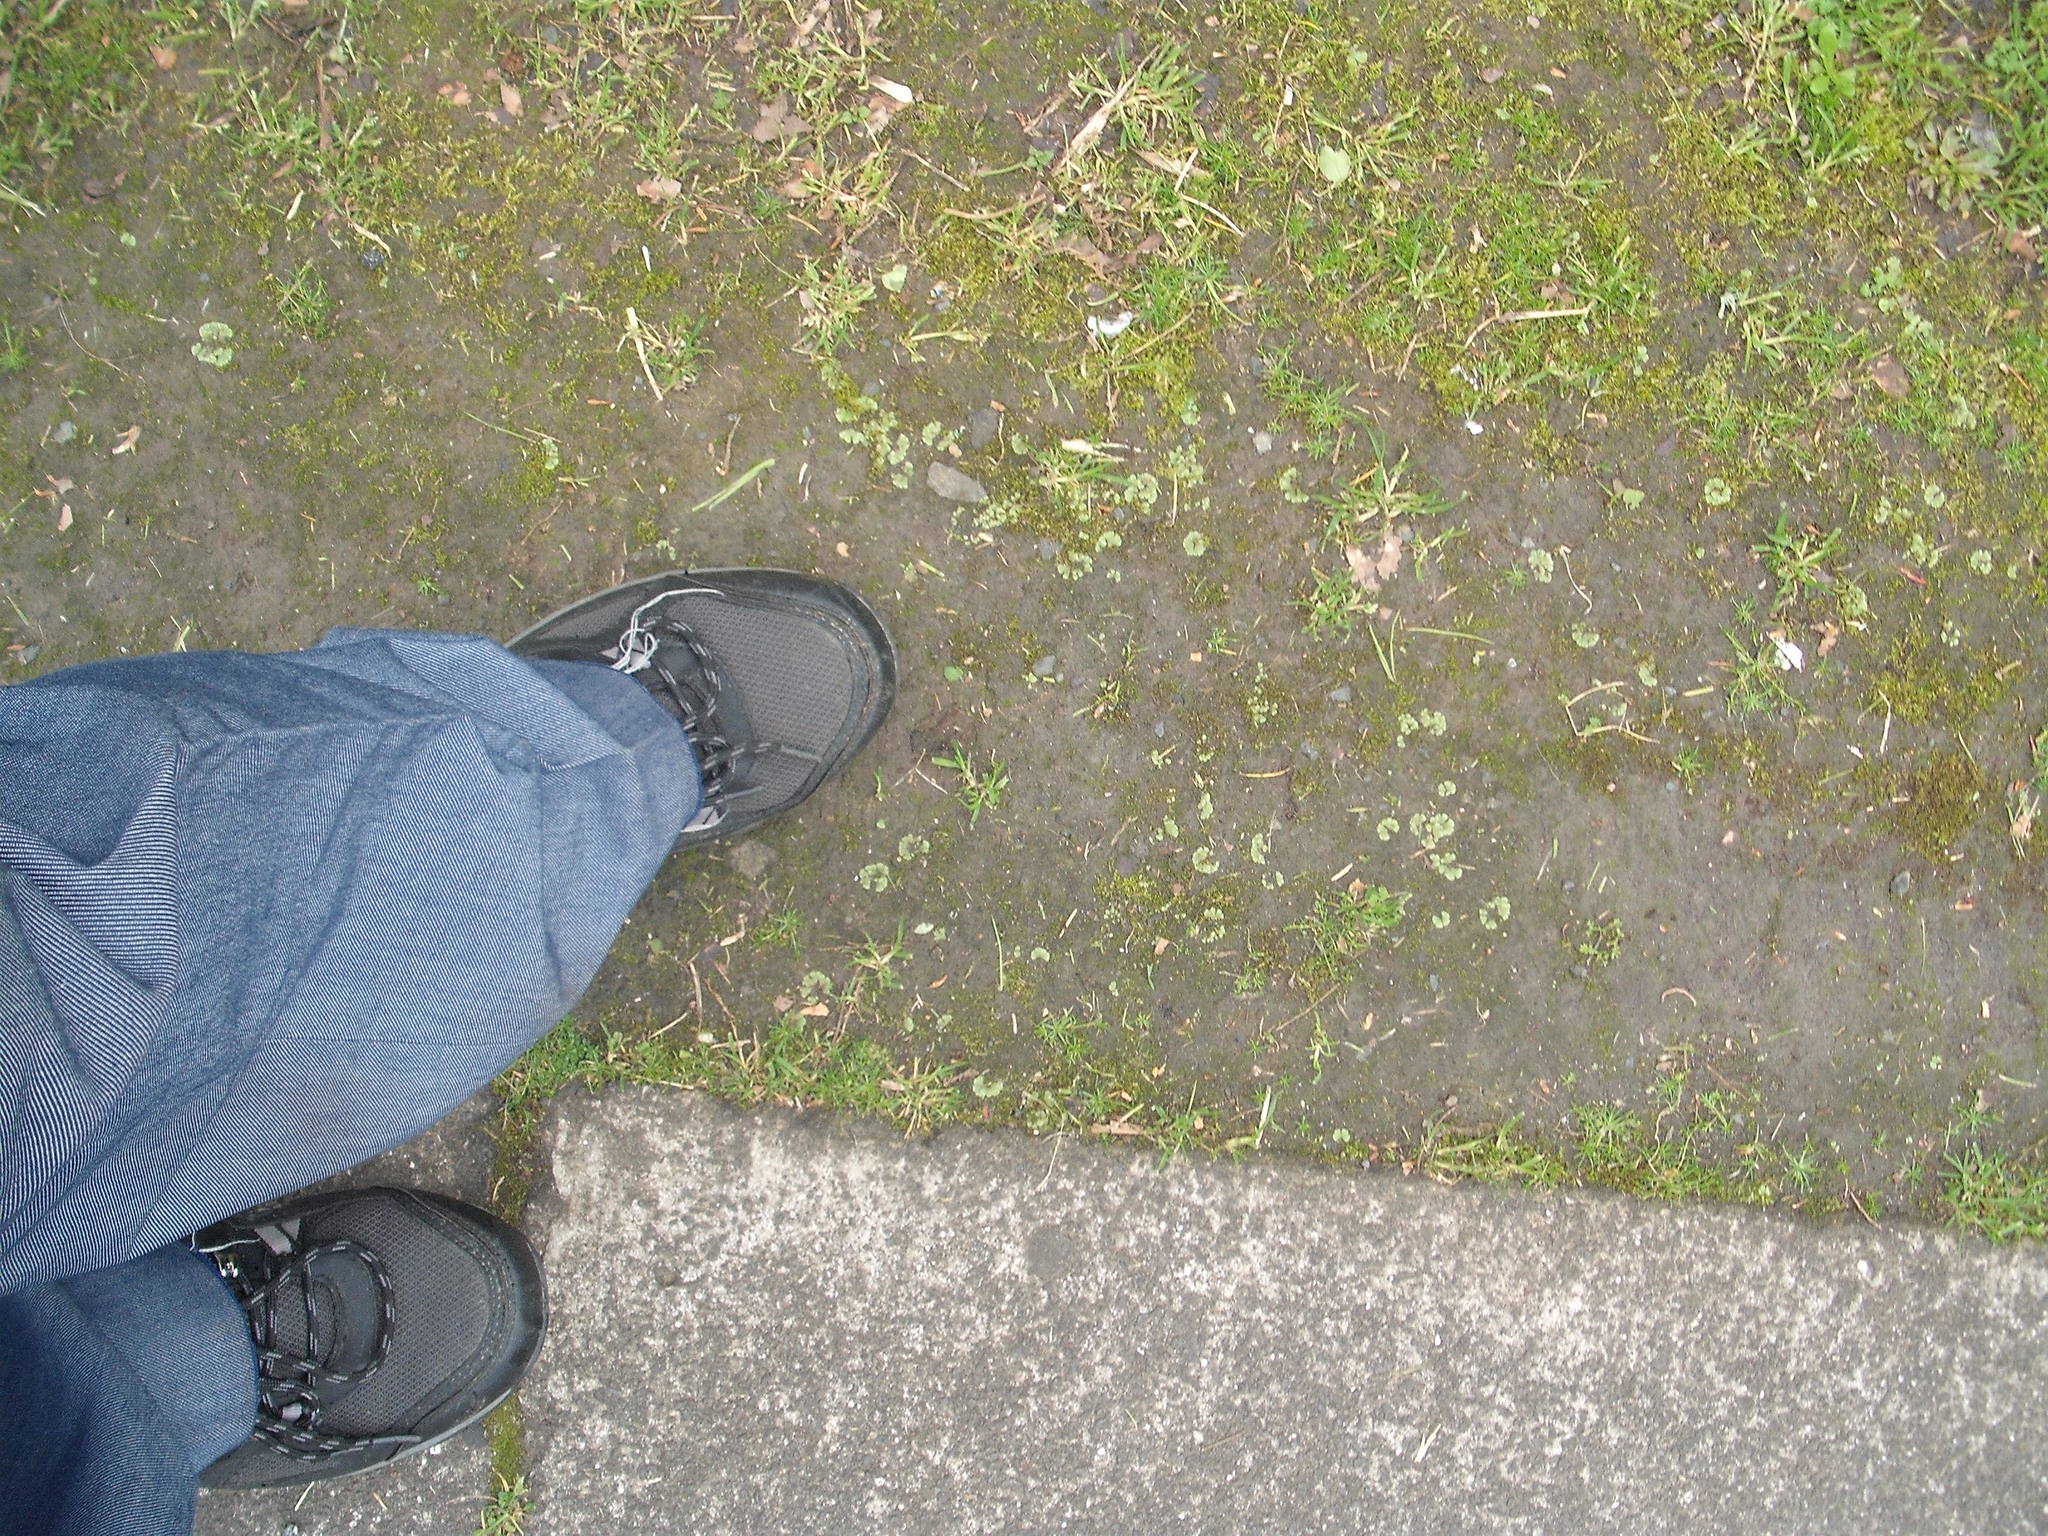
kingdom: Plantae
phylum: Marchantiophyta
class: Marchantiopsida
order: Marchantiales
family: Ricciaceae
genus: Riccia
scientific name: Riccia crystallina
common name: Blue crystalwort
